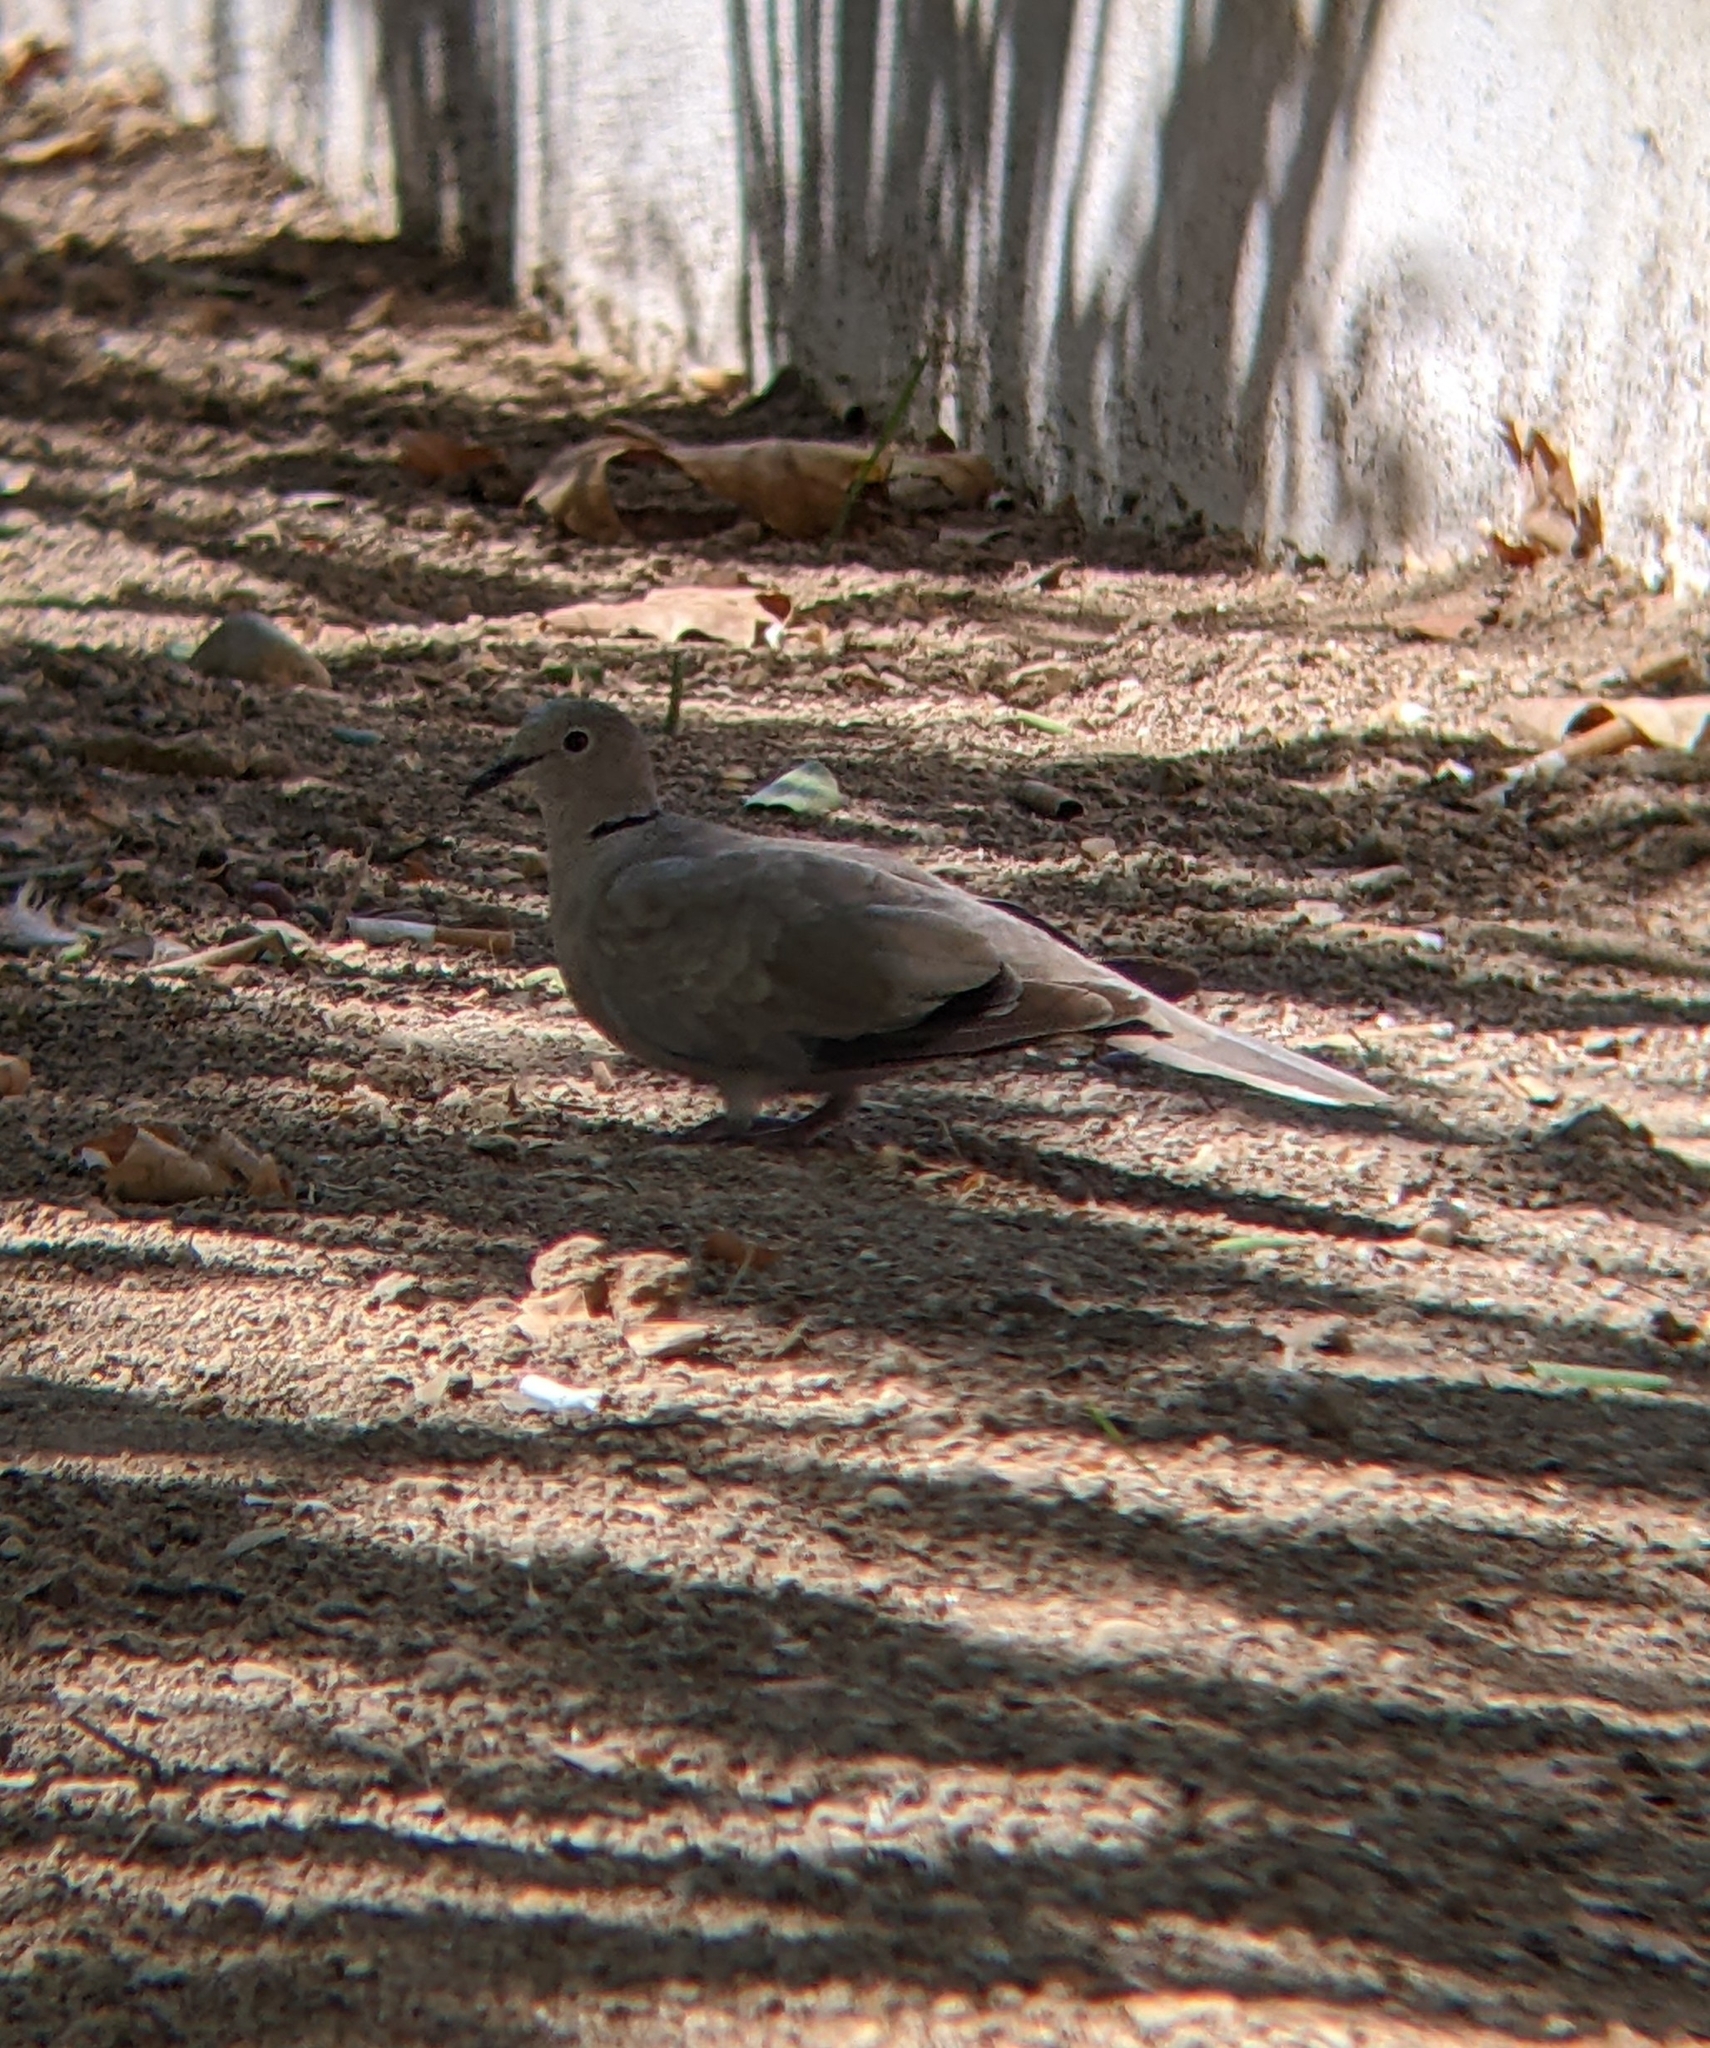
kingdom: Animalia
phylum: Chordata
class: Aves
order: Columbiformes
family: Columbidae
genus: Streptopelia
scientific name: Streptopelia decaocto
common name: Eurasian collared dove
